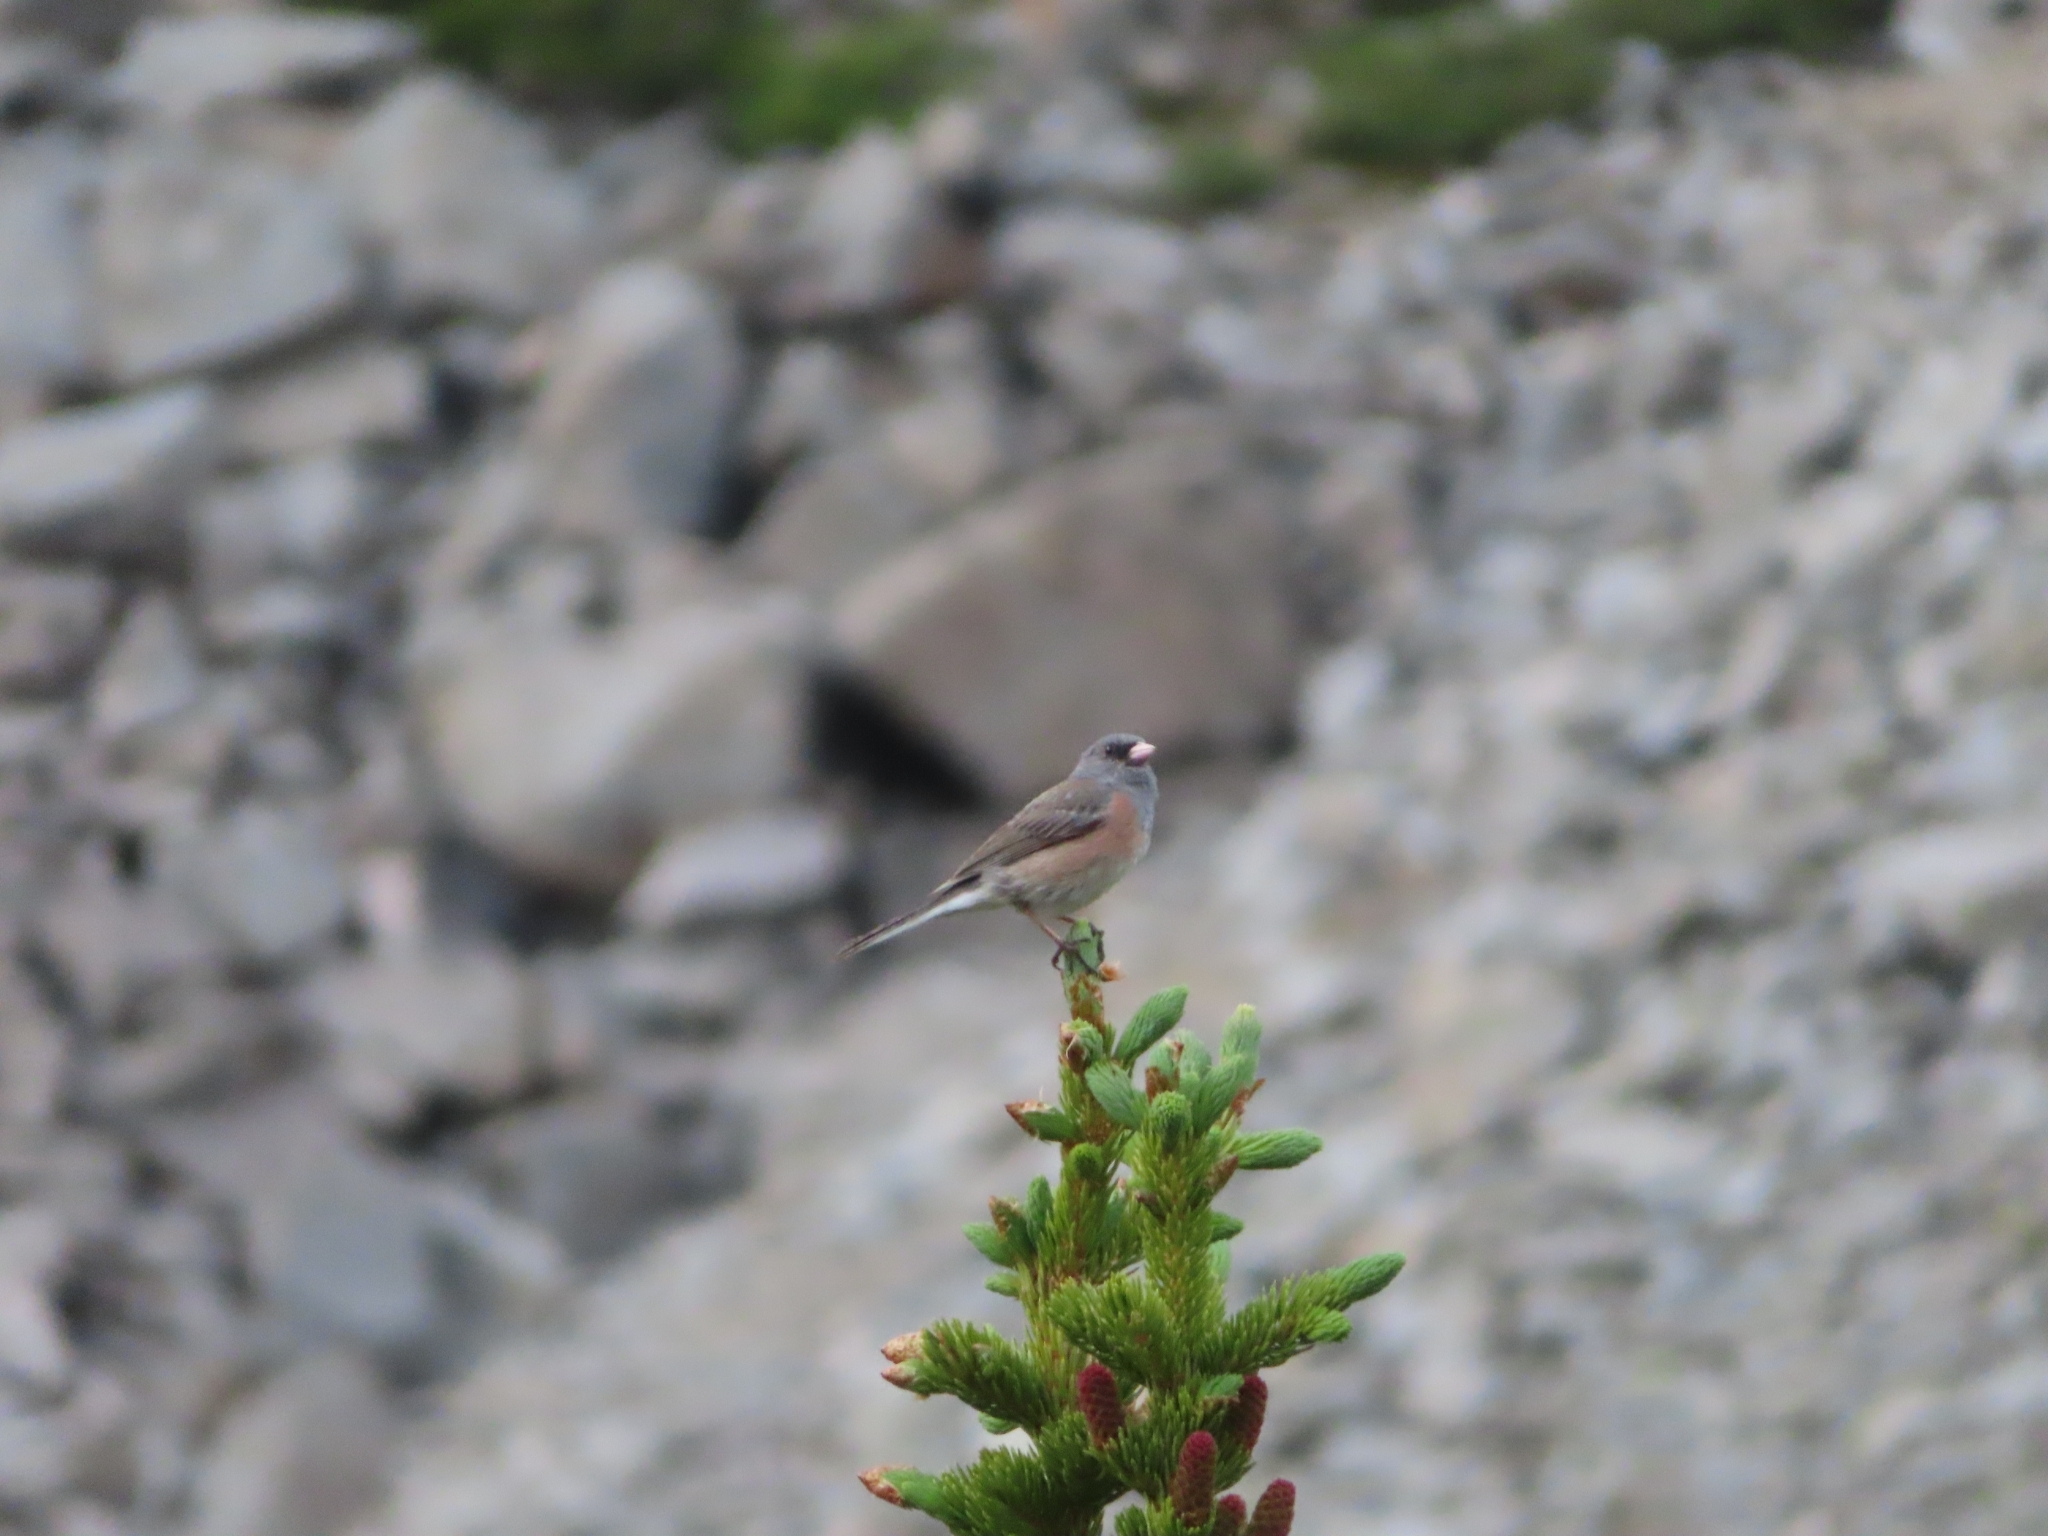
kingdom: Animalia
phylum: Chordata
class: Aves
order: Passeriformes
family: Passerellidae
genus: Junco
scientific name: Junco hyemalis
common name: Dark-eyed junco
